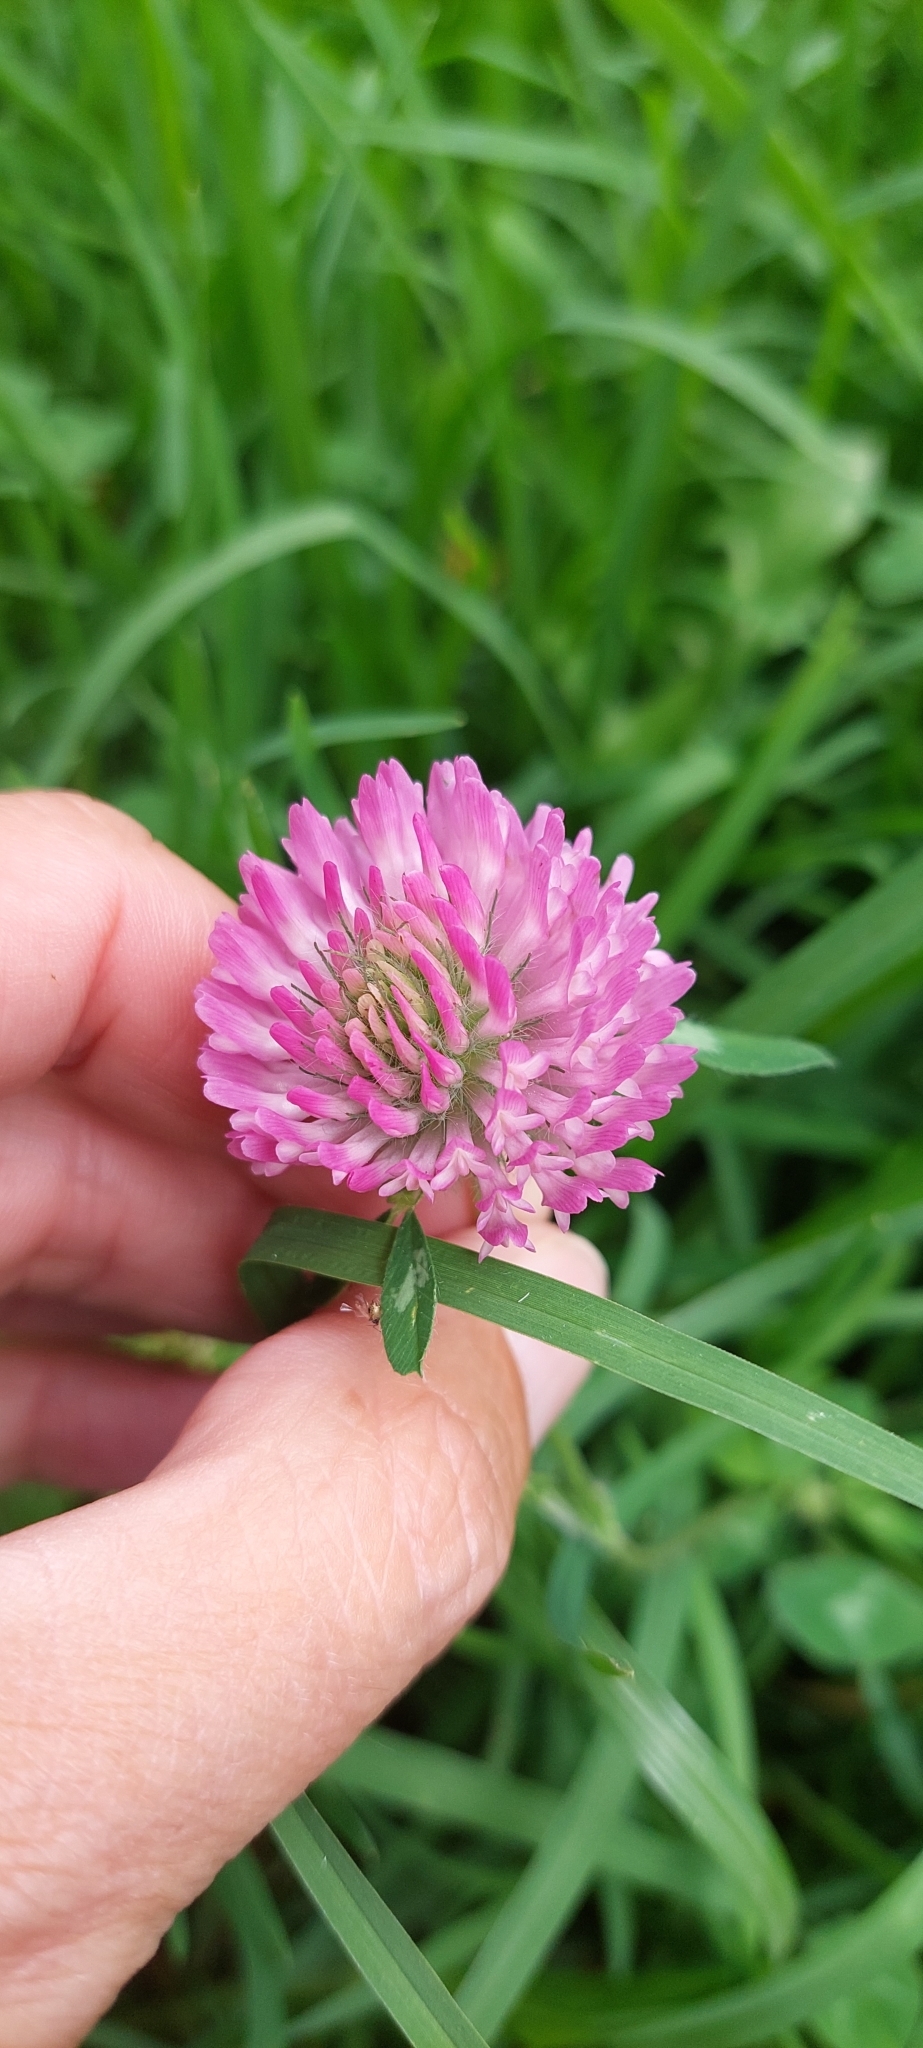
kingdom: Plantae
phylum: Tracheophyta
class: Magnoliopsida
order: Fabales
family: Fabaceae
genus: Trifolium
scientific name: Trifolium pratense
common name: Red clover
